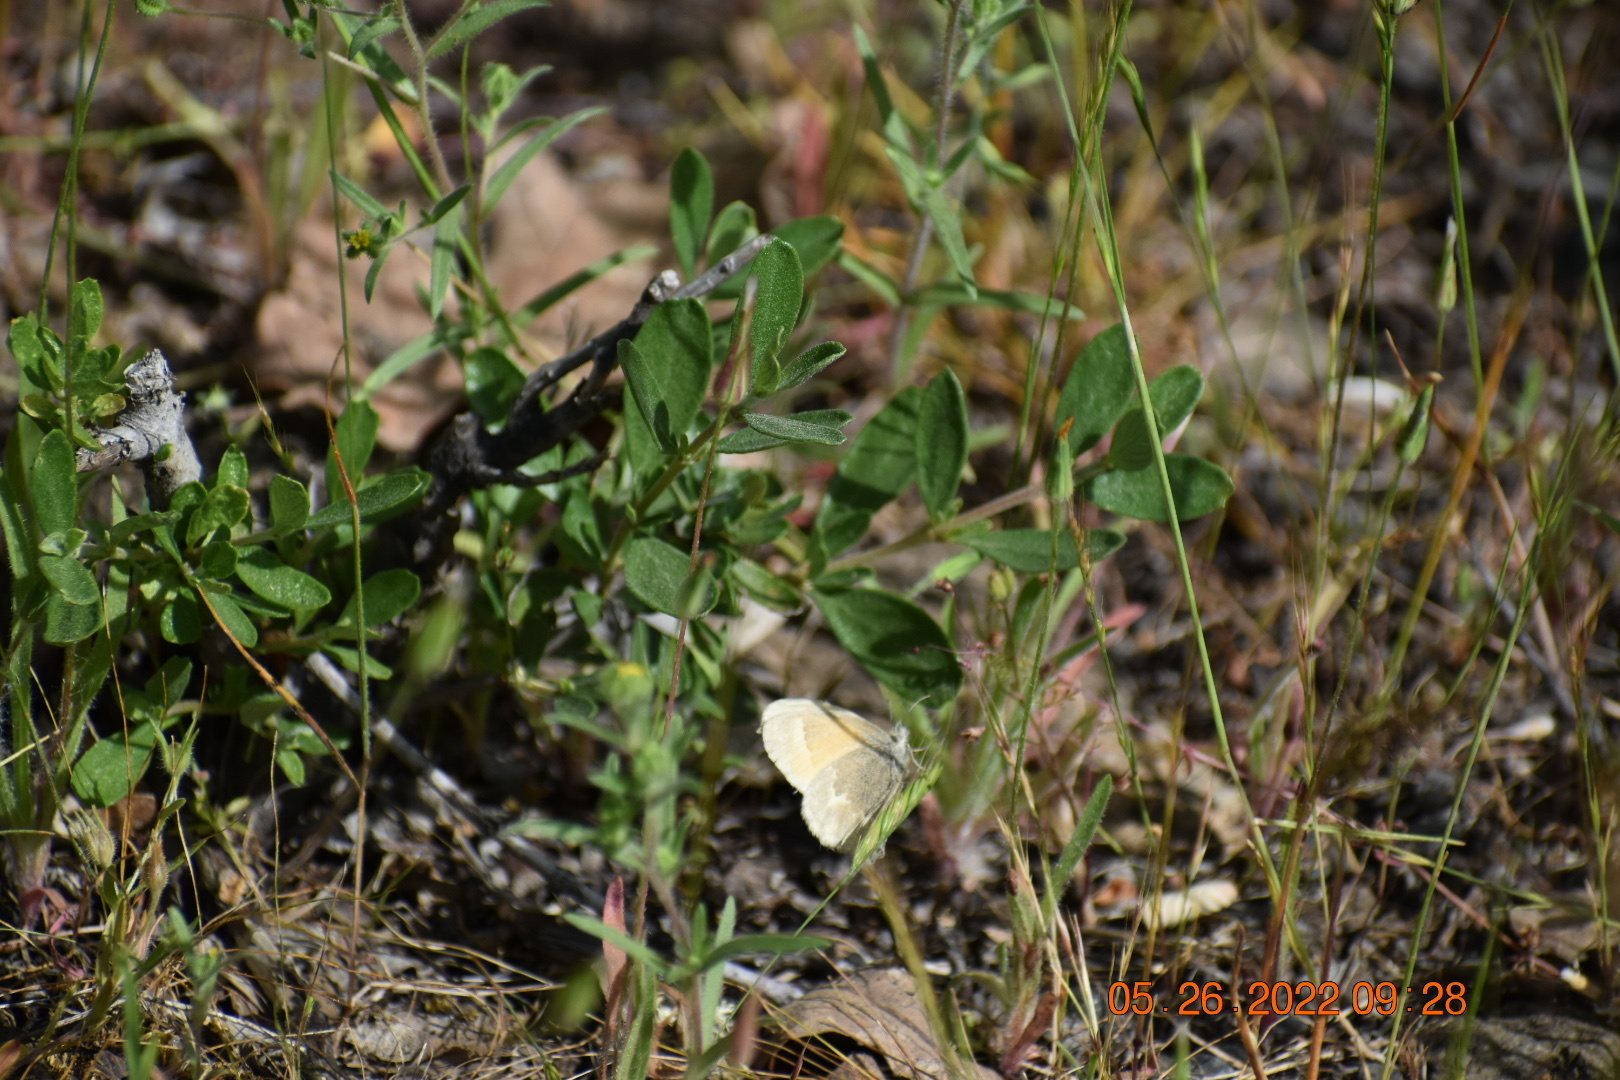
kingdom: Animalia
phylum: Arthropoda
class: Insecta
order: Lepidoptera
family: Nymphalidae
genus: Coenonympha
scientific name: Coenonympha california
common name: Common ringlet
